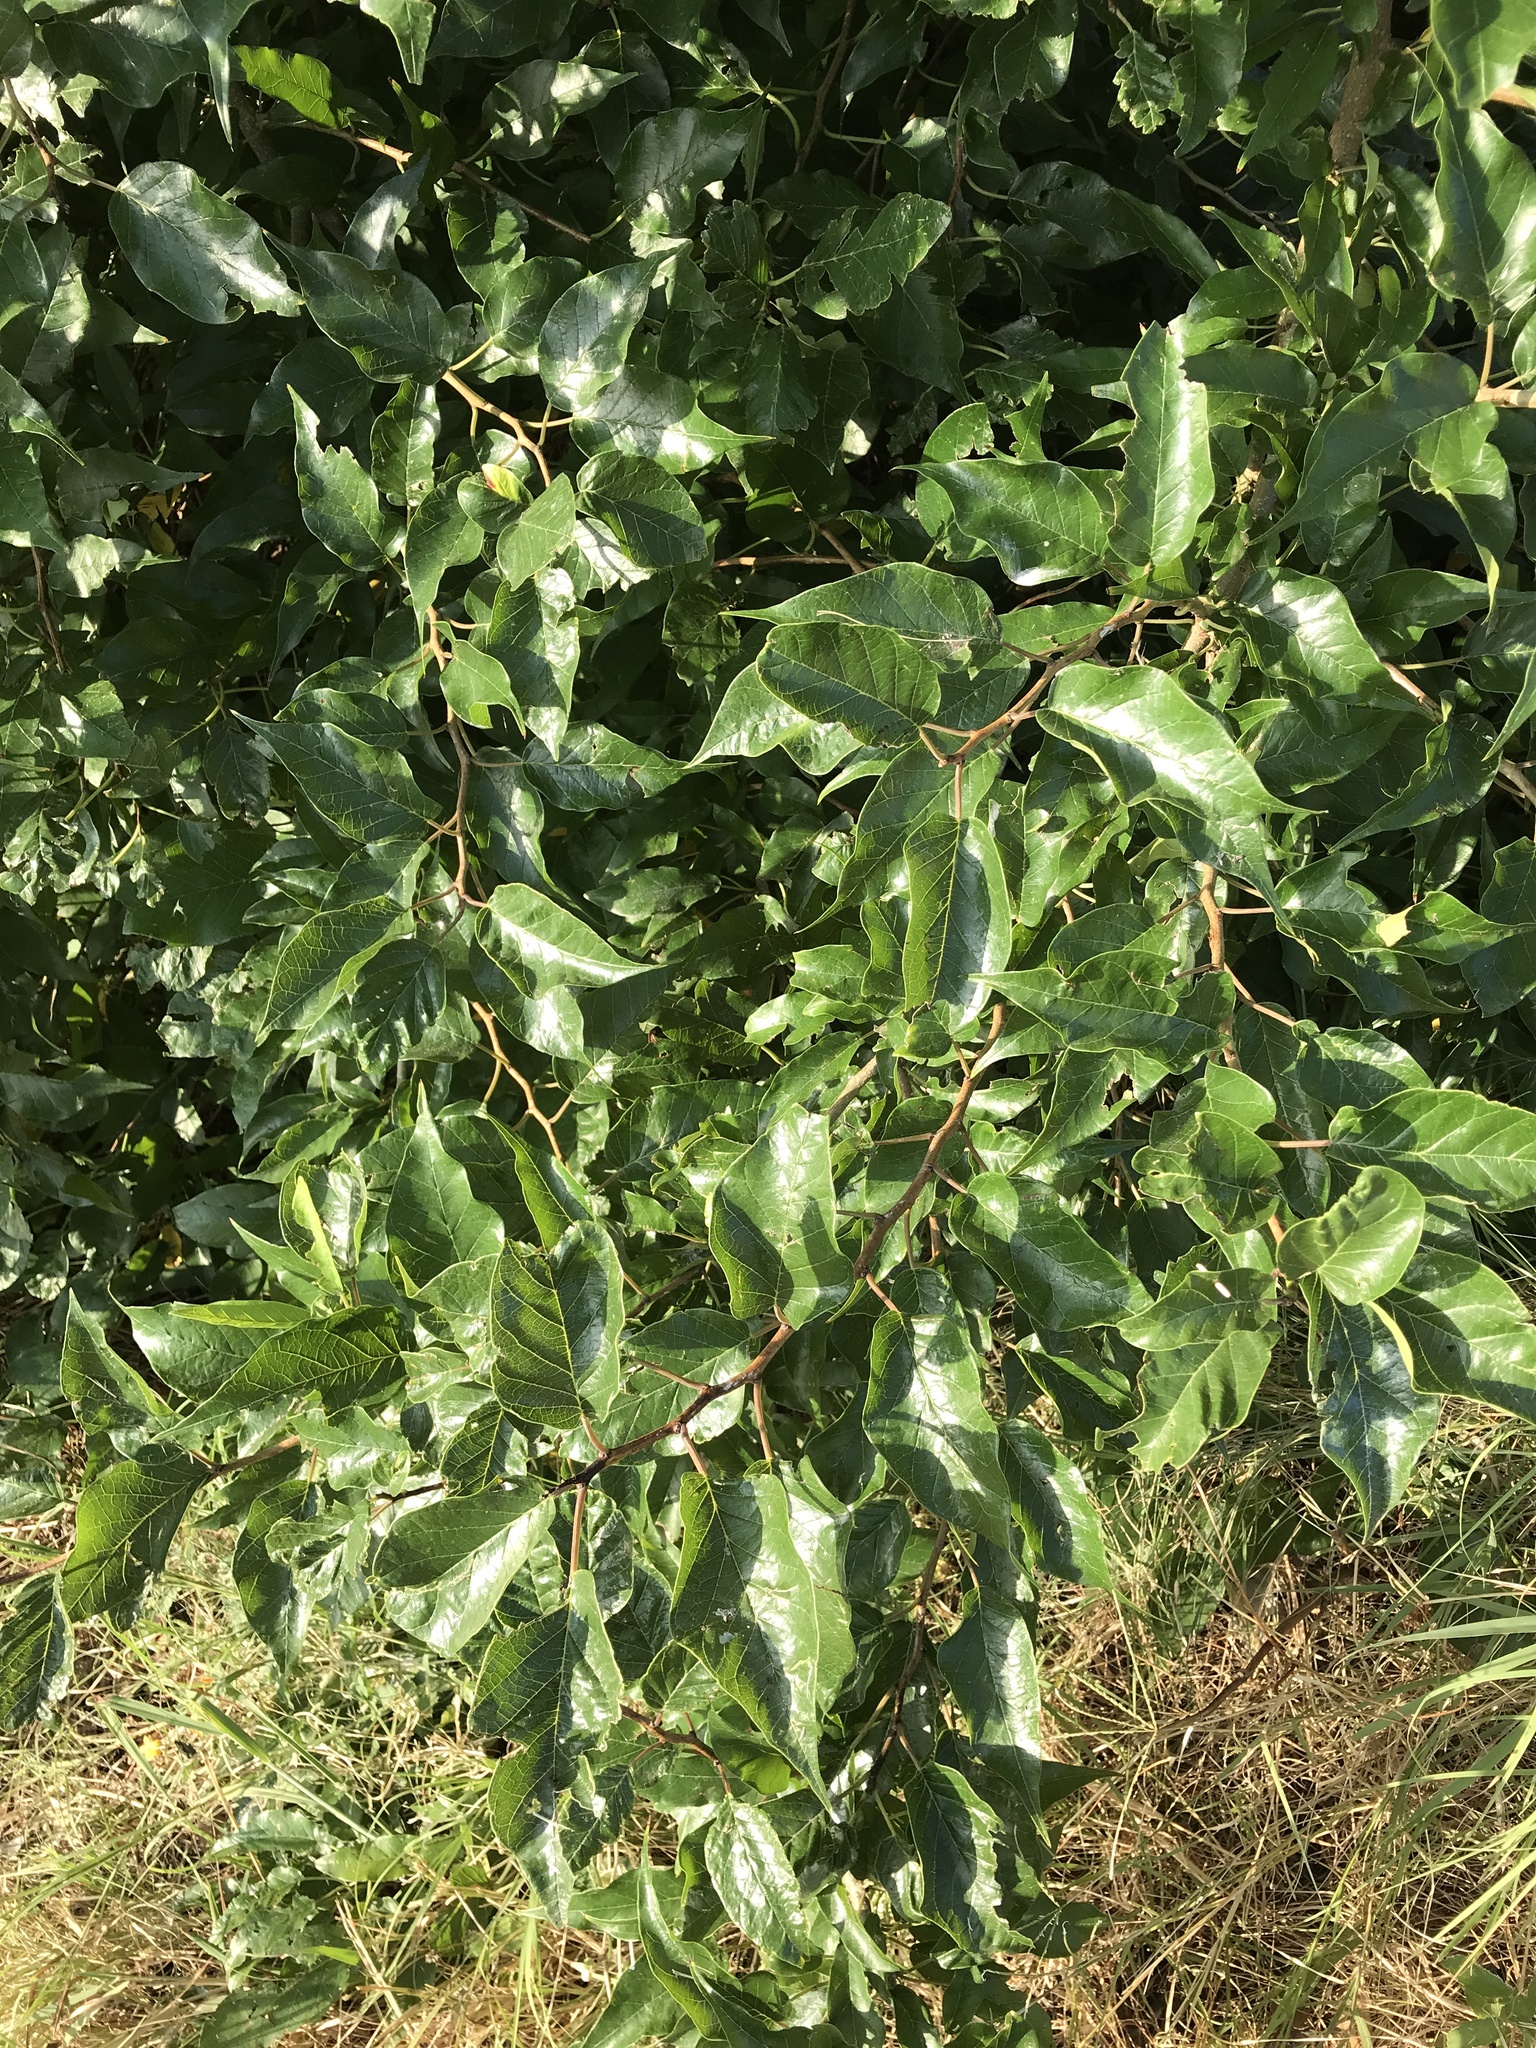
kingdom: Plantae
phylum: Tracheophyta
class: Magnoliopsida
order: Rosales
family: Moraceae
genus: Maclura
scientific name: Maclura pomifera
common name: Osage-orange
